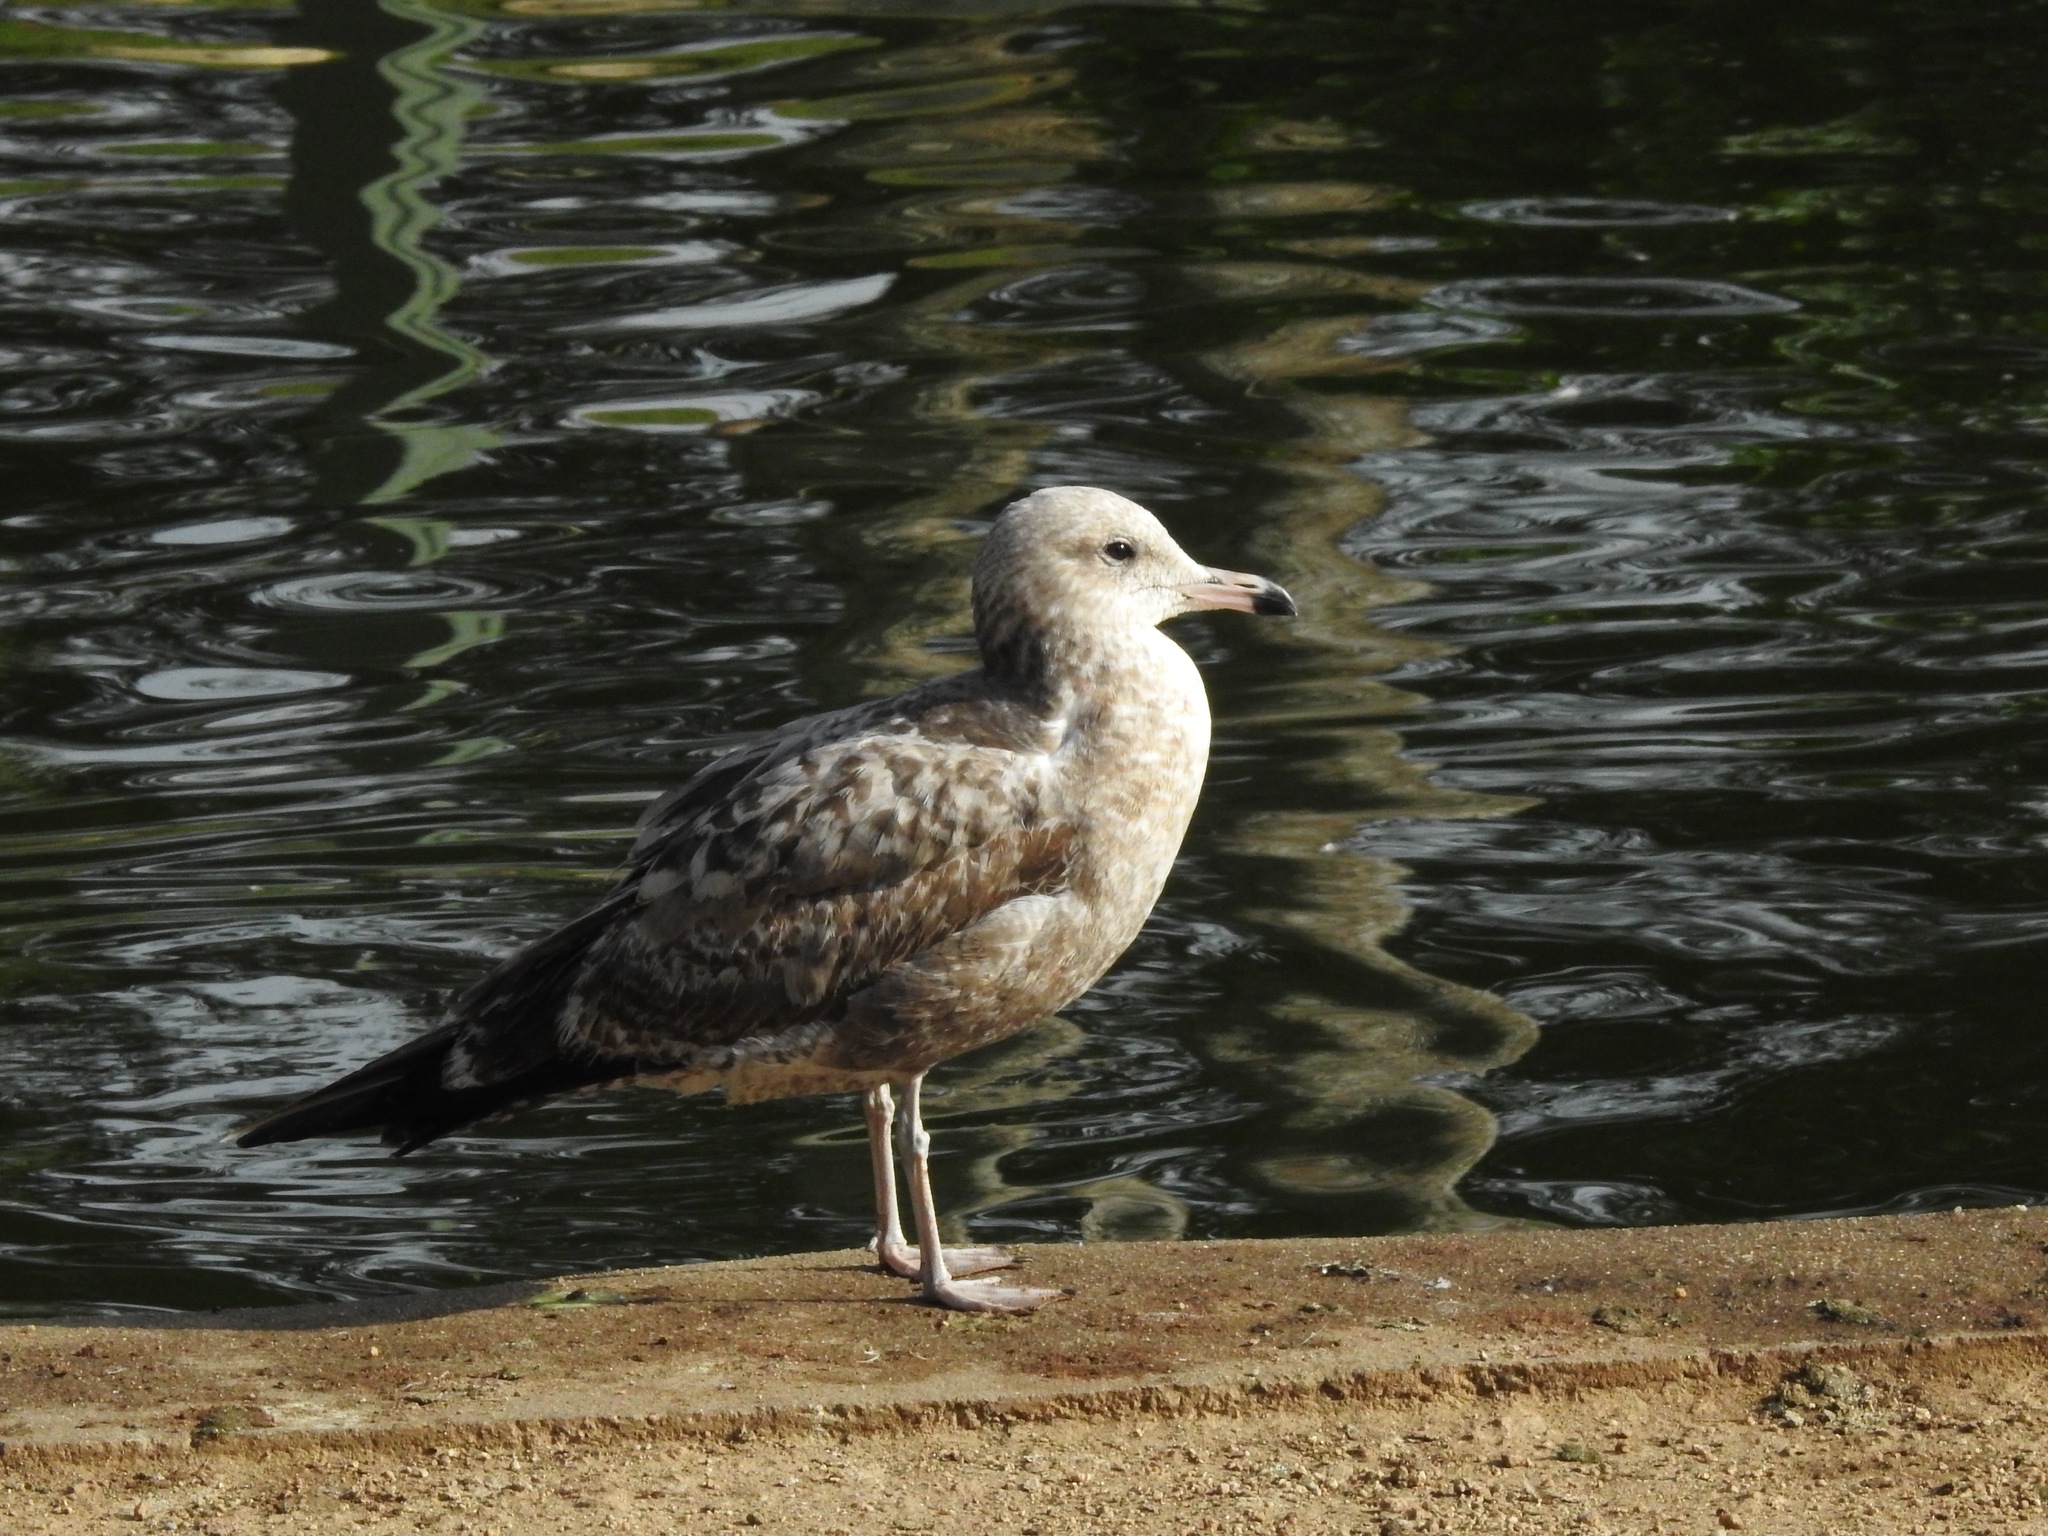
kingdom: Animalia
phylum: Chordata
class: Aves
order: Charadriiformes
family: Laridae
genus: Larus
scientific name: Larus californicus
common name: California gull
